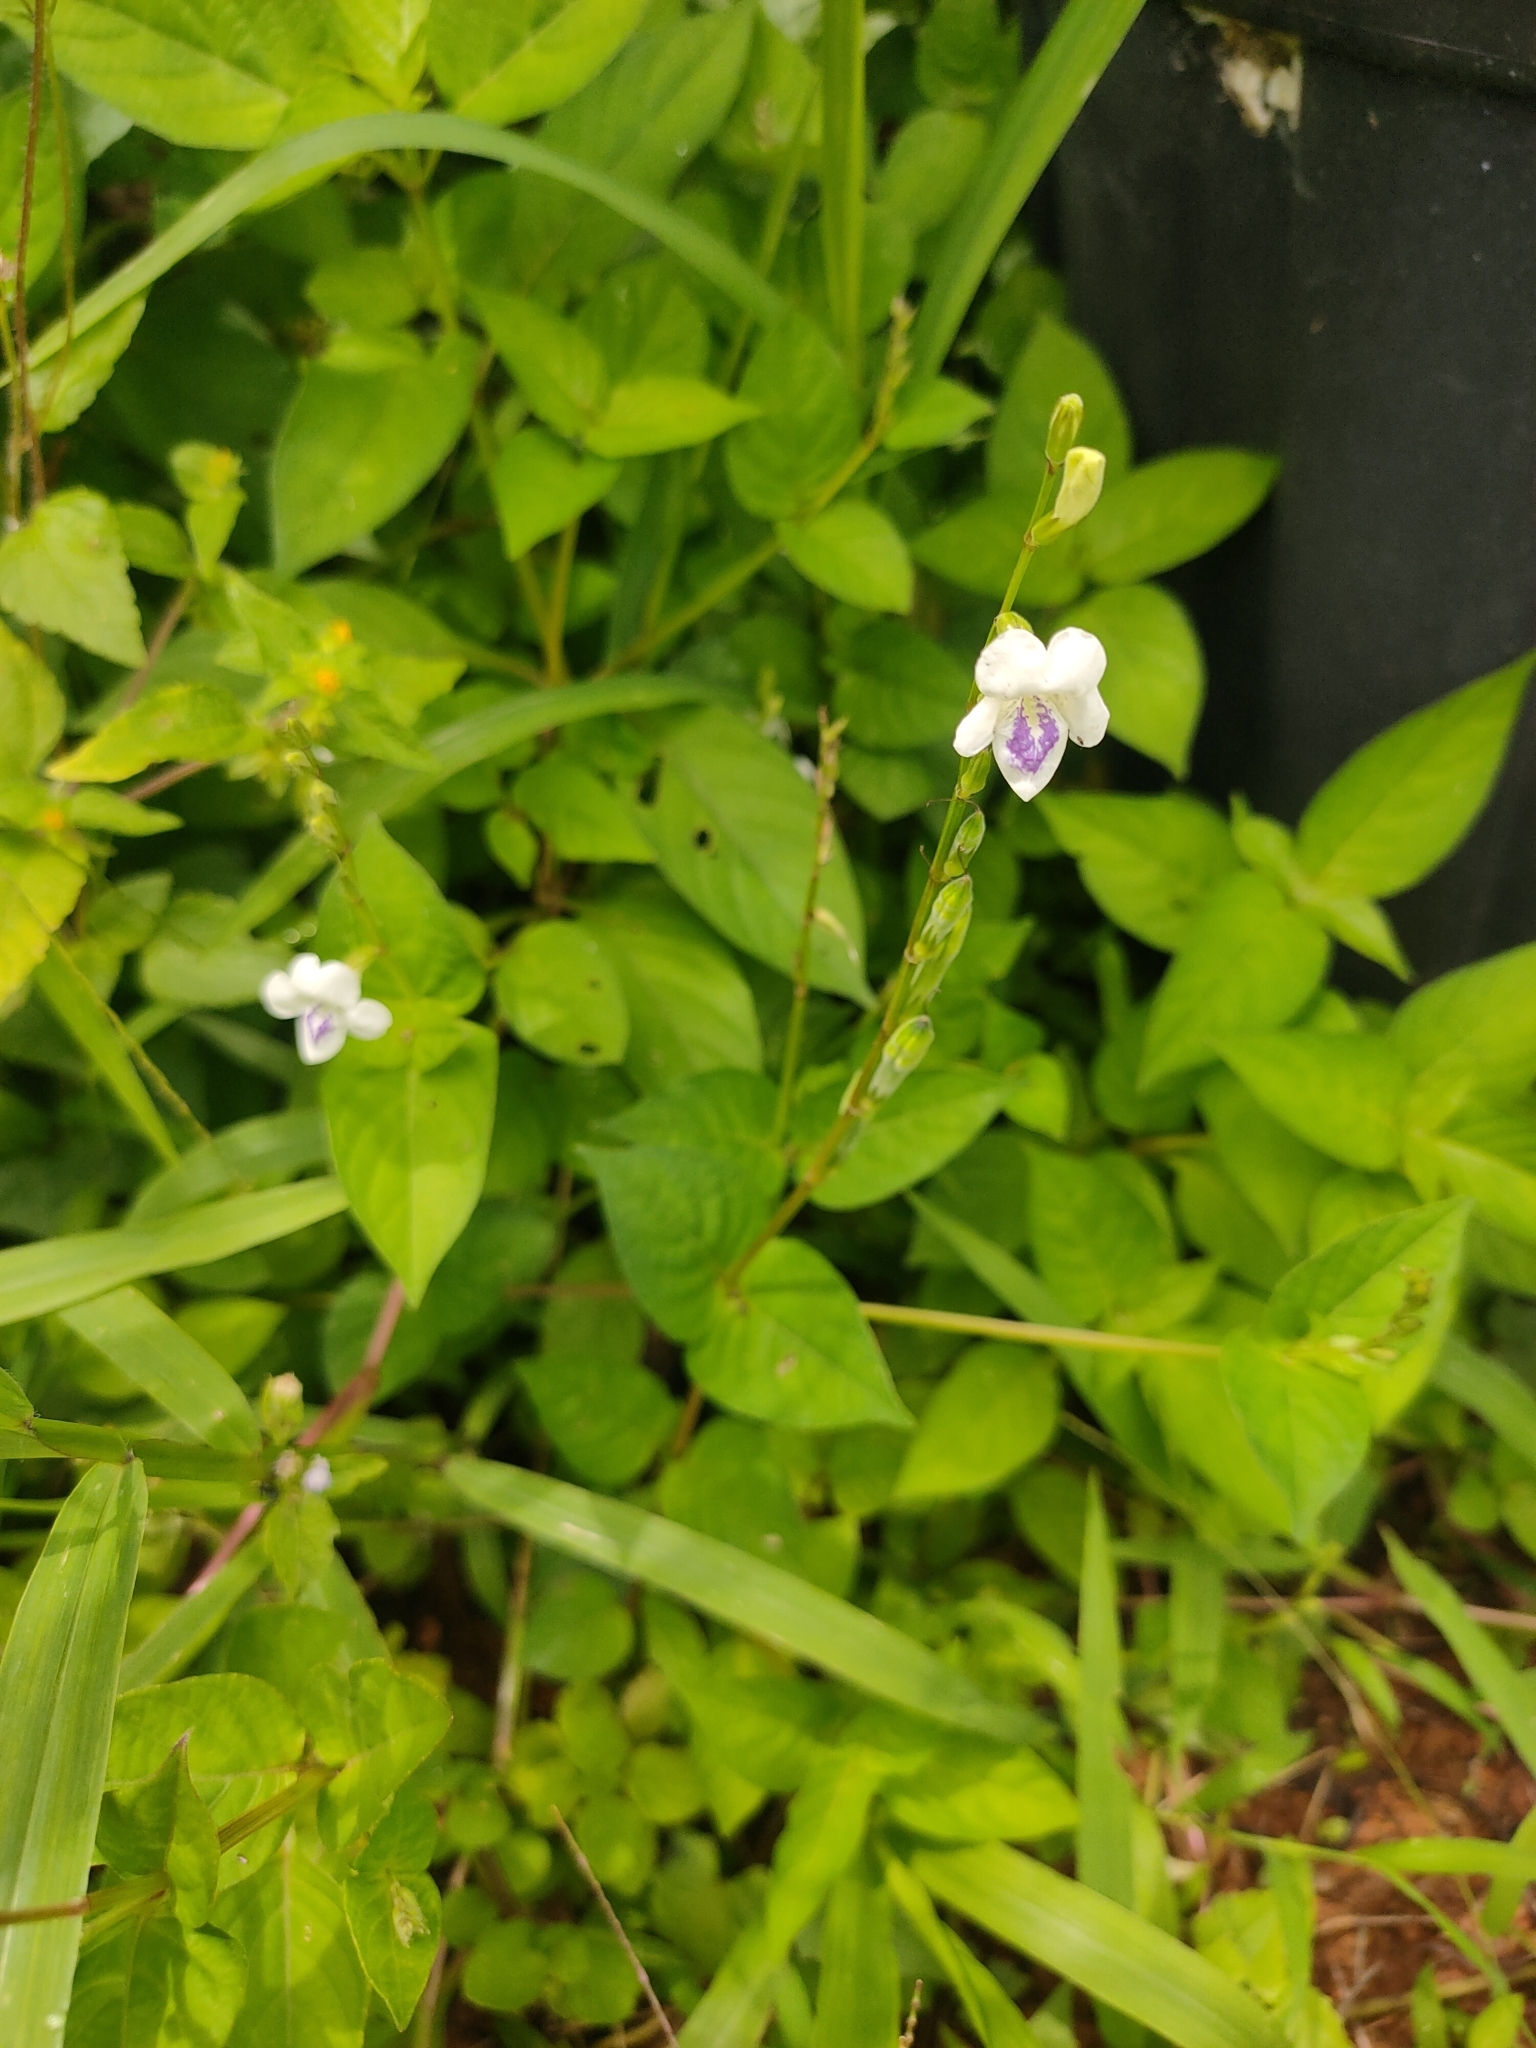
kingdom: Plantae
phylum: Tracheophyta
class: Magnoliopsida
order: Lamiales
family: Acanthaceae
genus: Asystasia
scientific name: Asystasia intrusa
